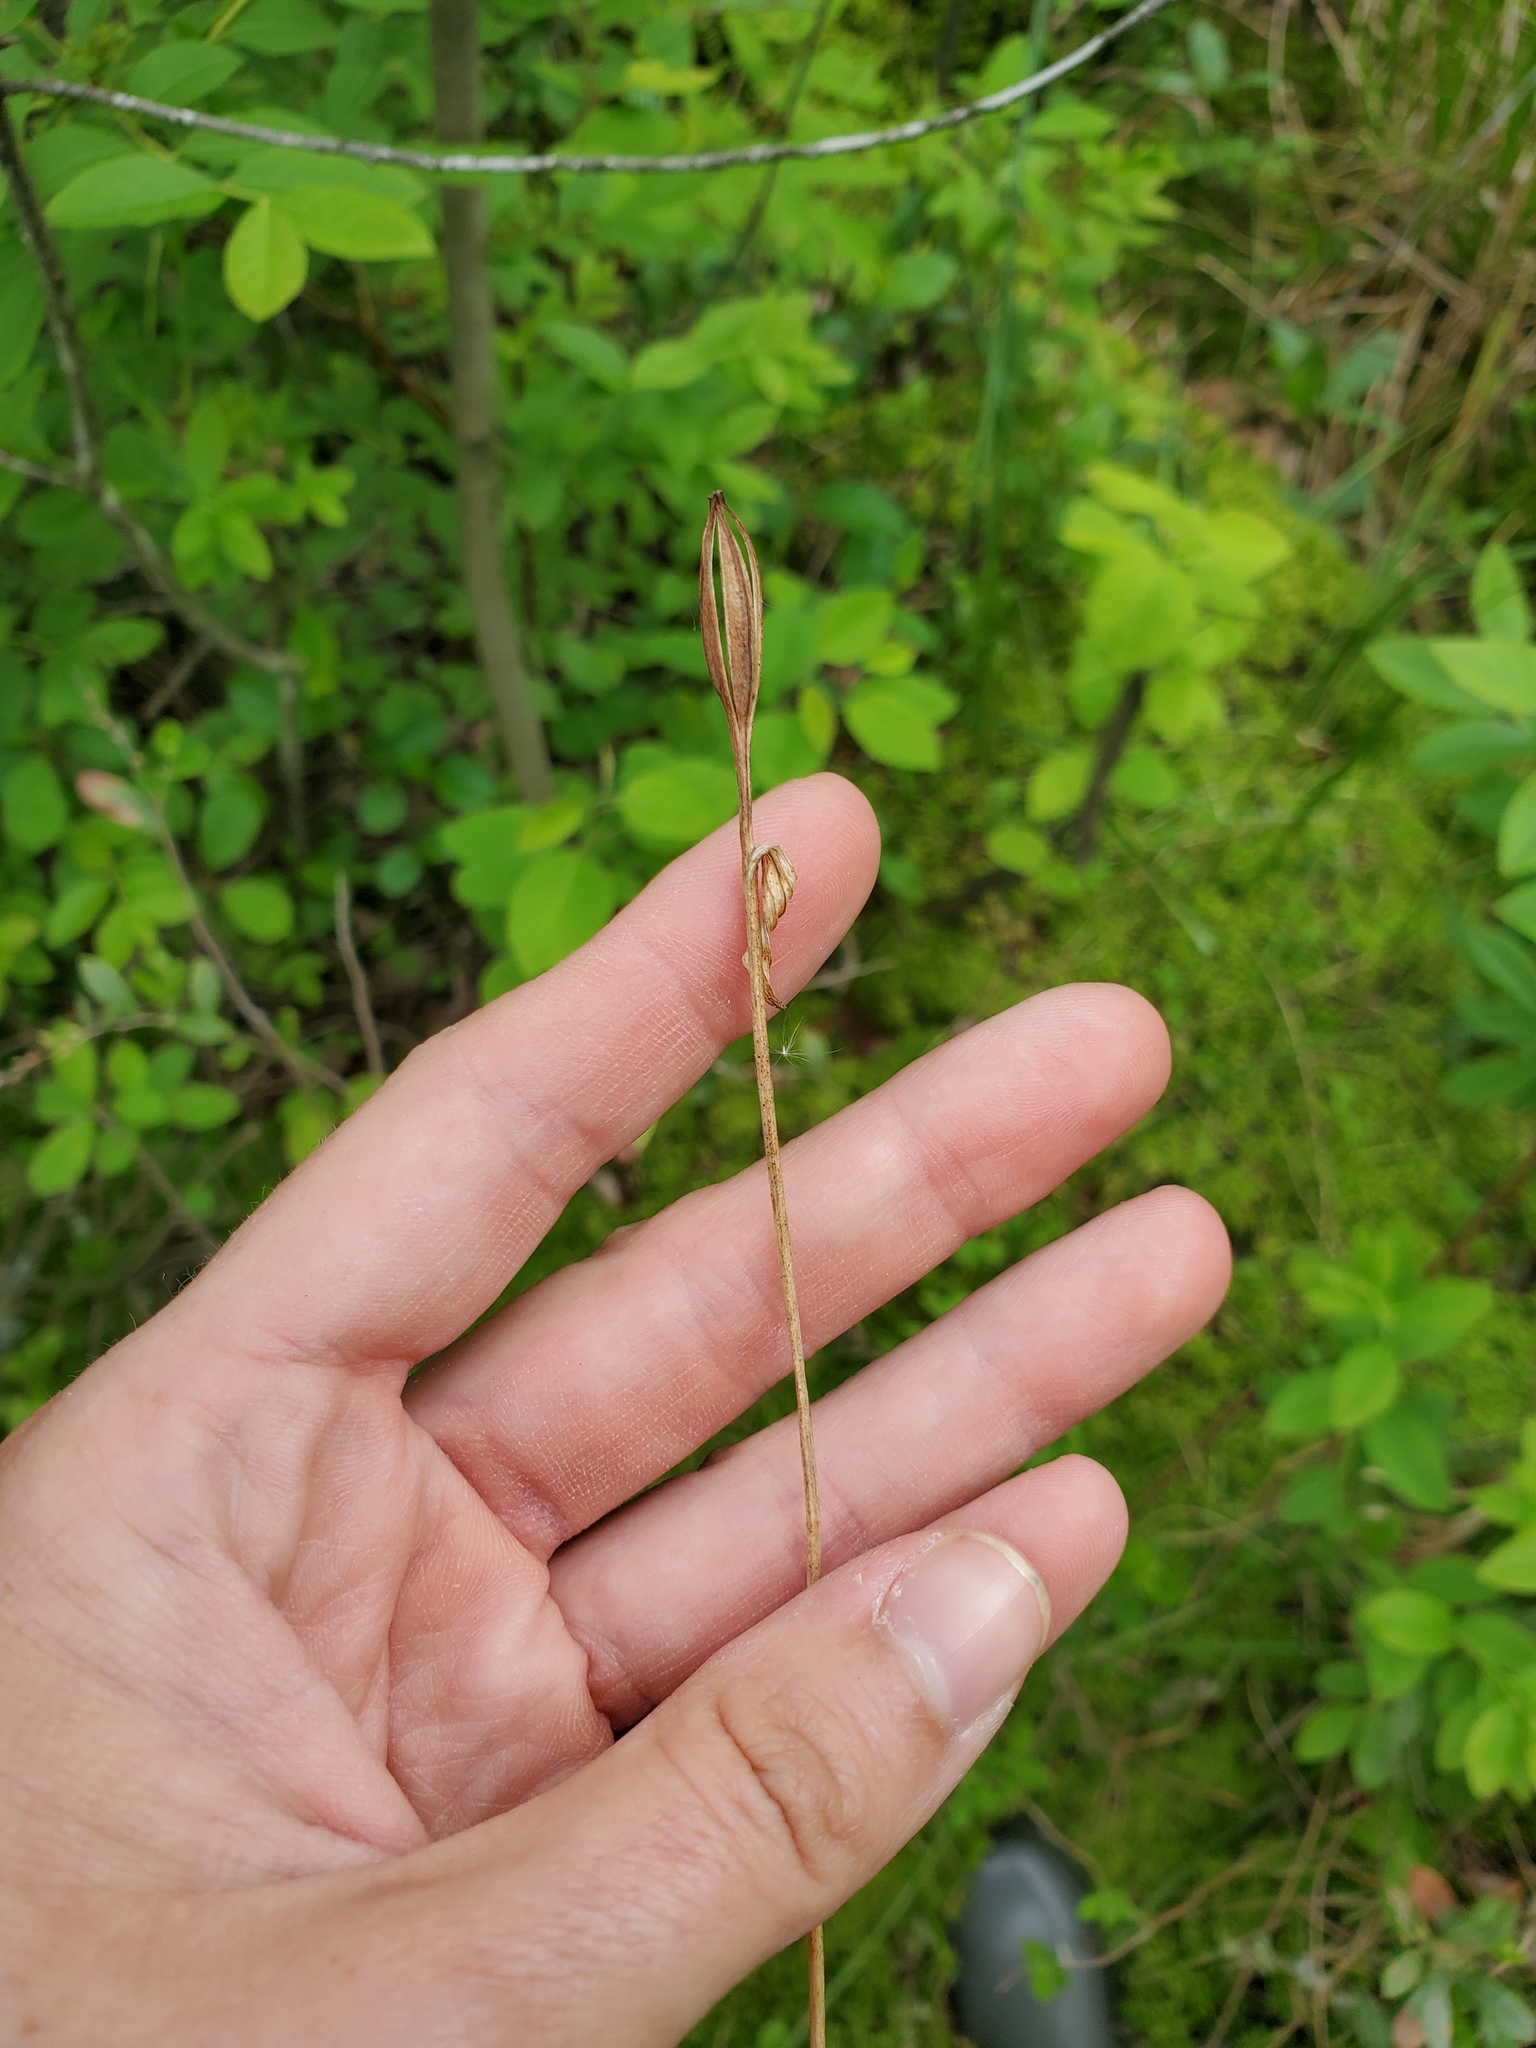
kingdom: Plantae
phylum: Tracheophyta
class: Liliopsida
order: Asparagales
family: Orchidaceae
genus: Pogonia
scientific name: Pogonia ophioglossoides
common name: Rose pogonia
